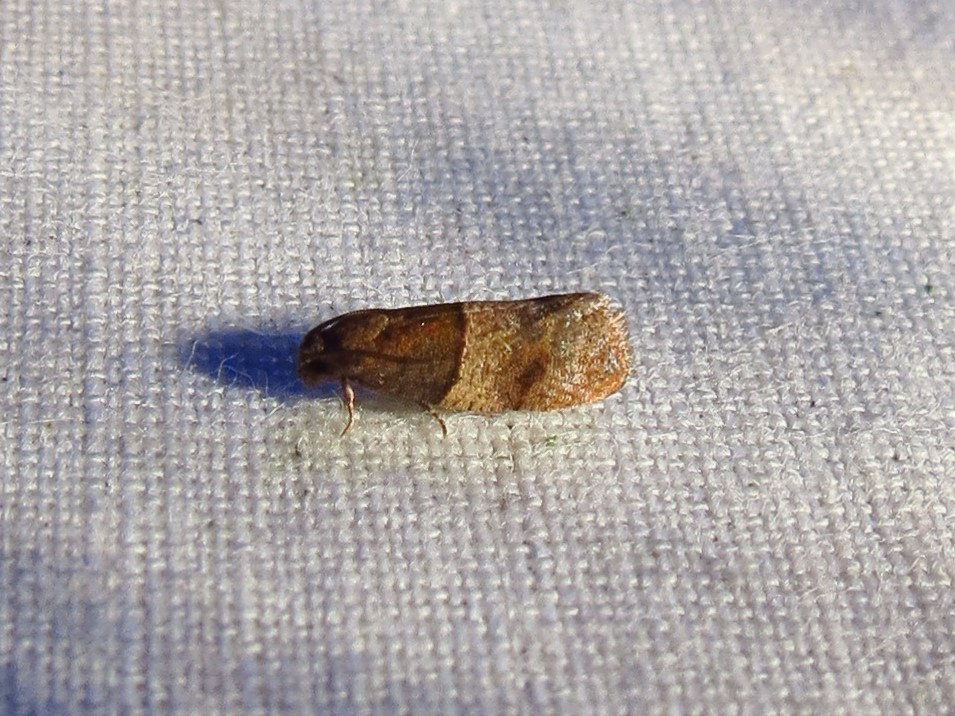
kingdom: Animalia
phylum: Arthropoda
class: Insecta
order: Lepidoptera
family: Tortricidae
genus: Larisa
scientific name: Larisa subsolana
